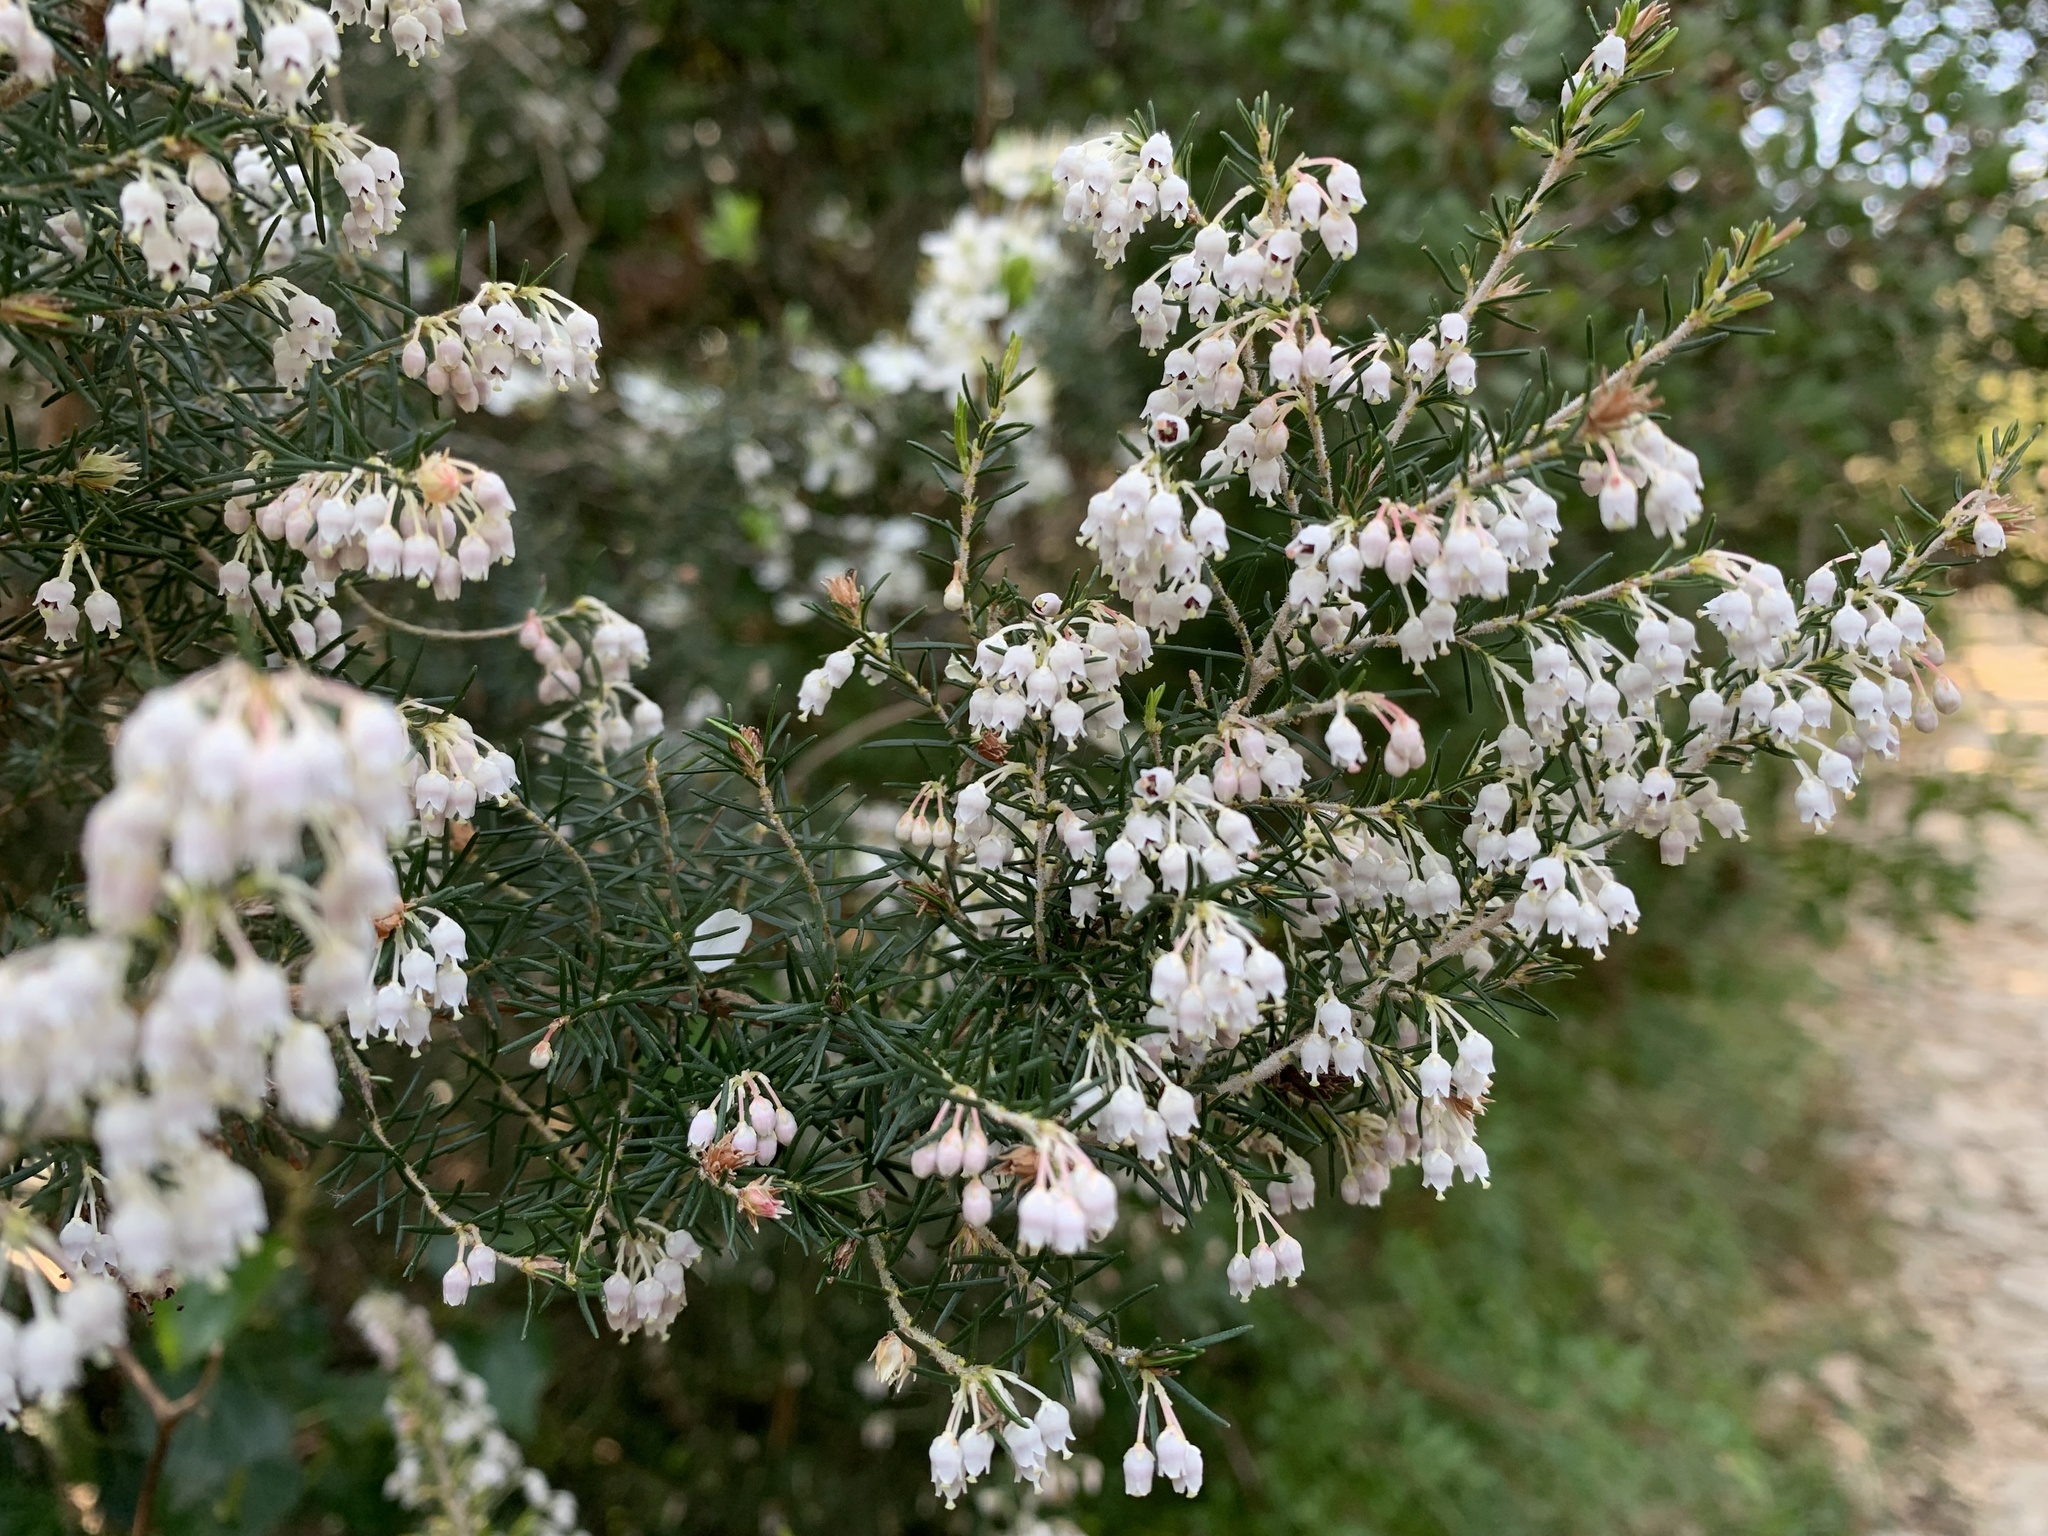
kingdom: Plantae
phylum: Tracheophyta
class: Magnoliopsida
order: Ericales
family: Ericaceae
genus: Erica
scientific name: Erica arborea
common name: Tree heath
